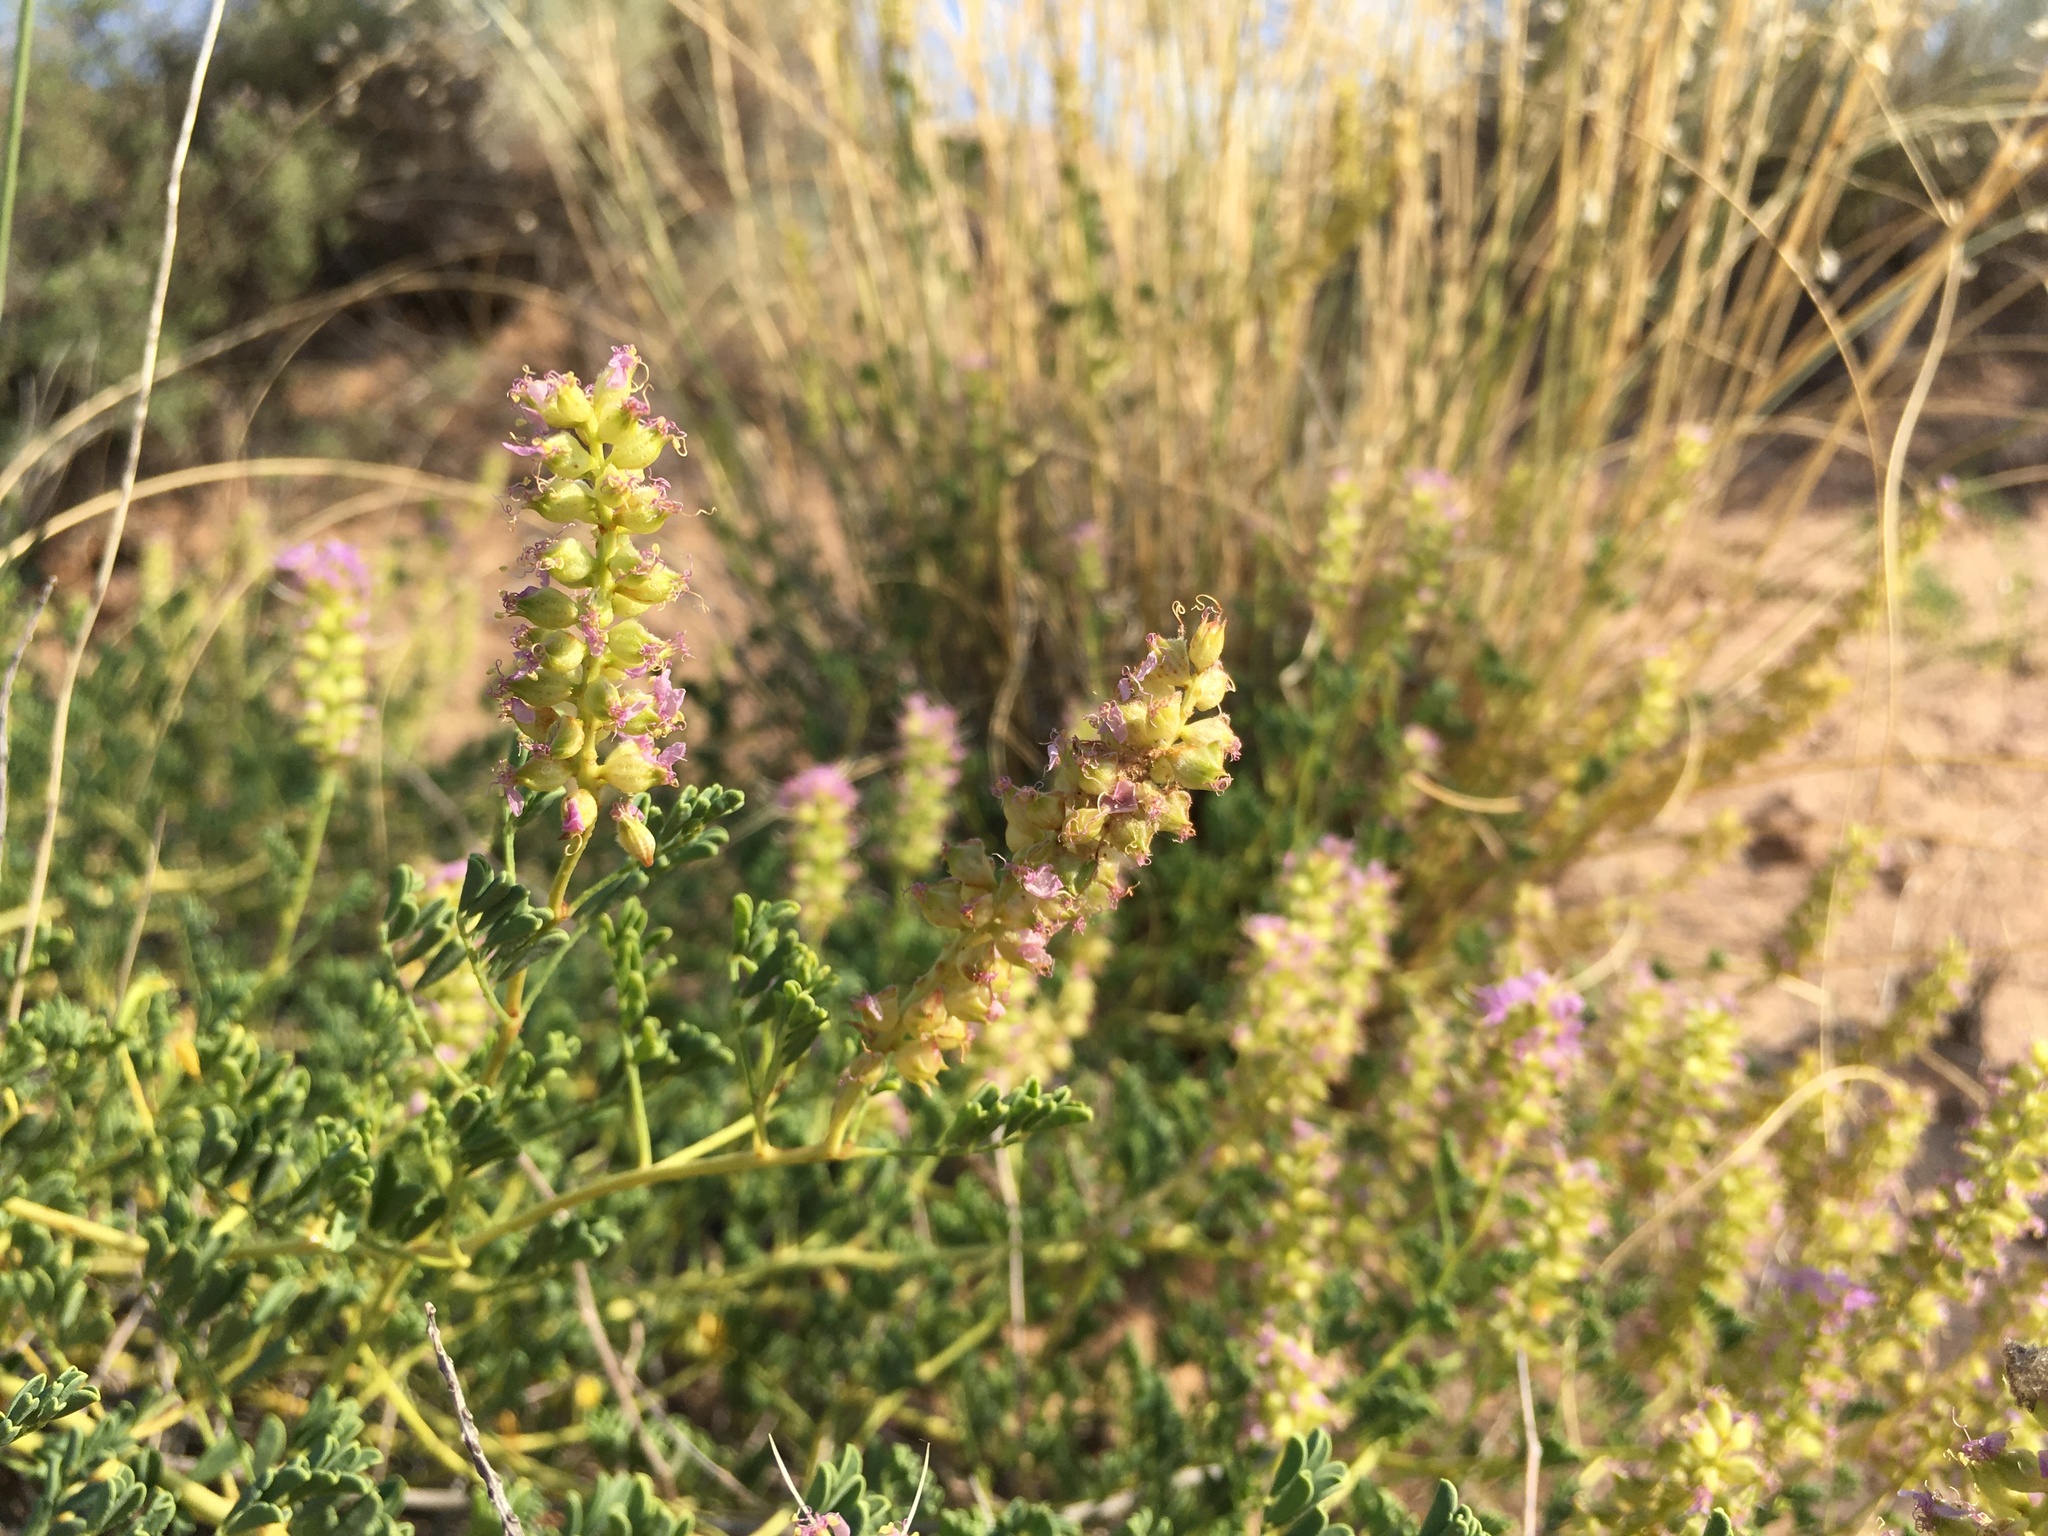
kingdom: Plantae
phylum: Tracheophyta
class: Magnoliopsida
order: Fabales
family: Fabaceae
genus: Dalea
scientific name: Dalea scariosa
